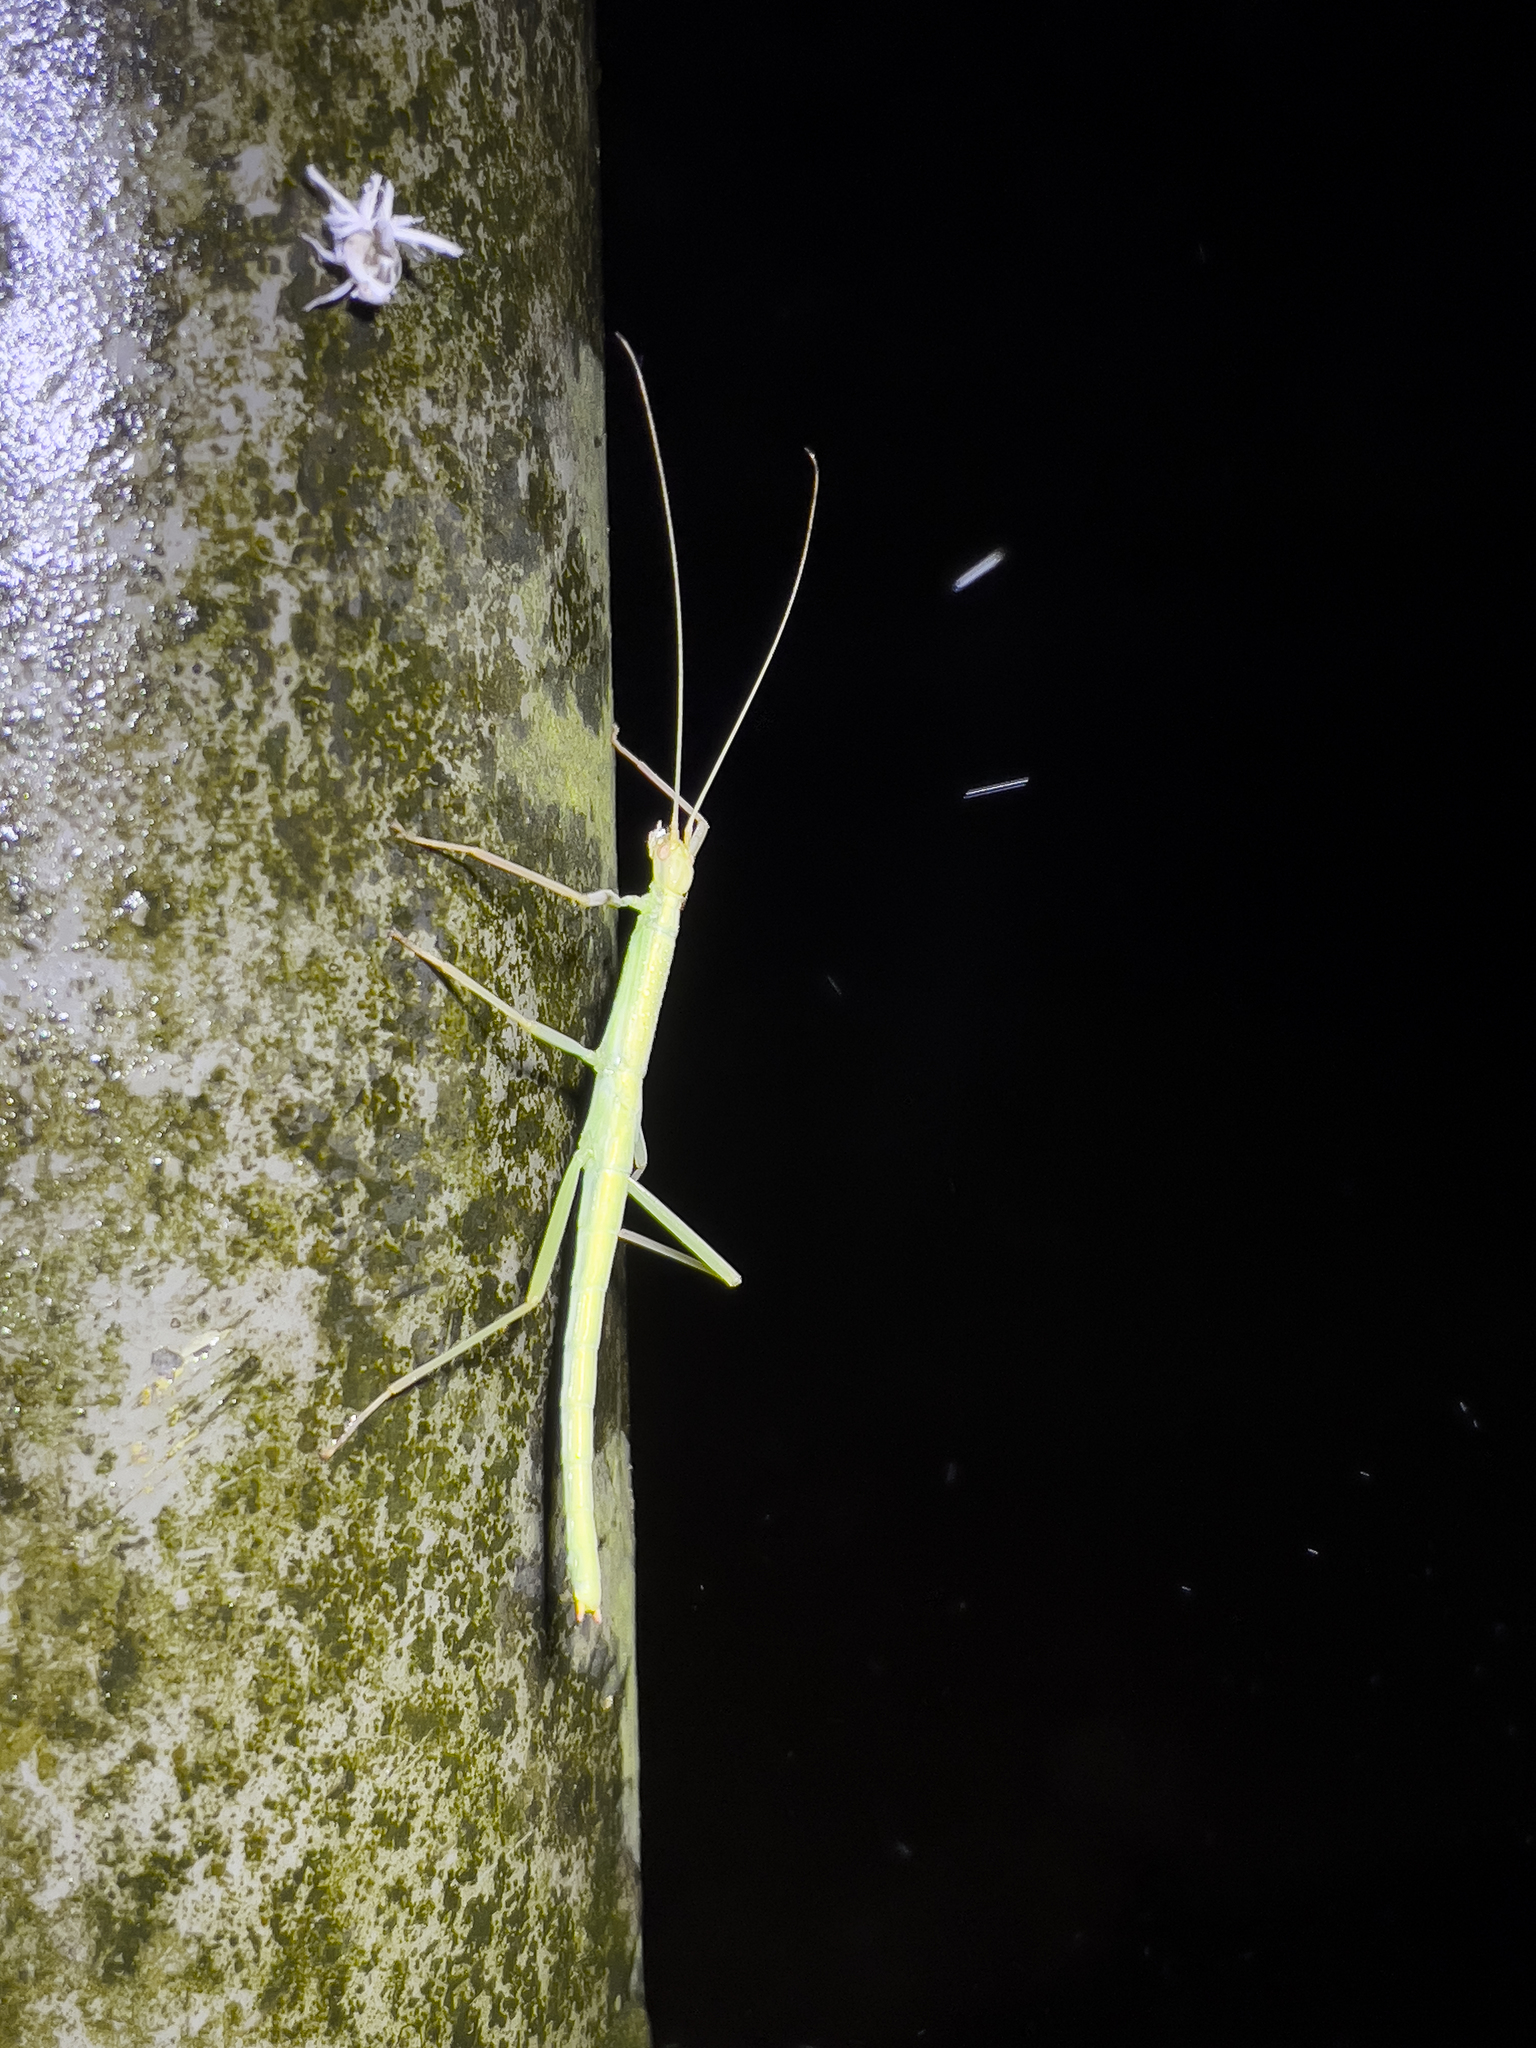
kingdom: Animalia
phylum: Arthropoda
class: Insecta
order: Phasmida
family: Lonchodidae
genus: Sipyloidea
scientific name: Sipyloidea sipylus
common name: Madagascan stick insect
